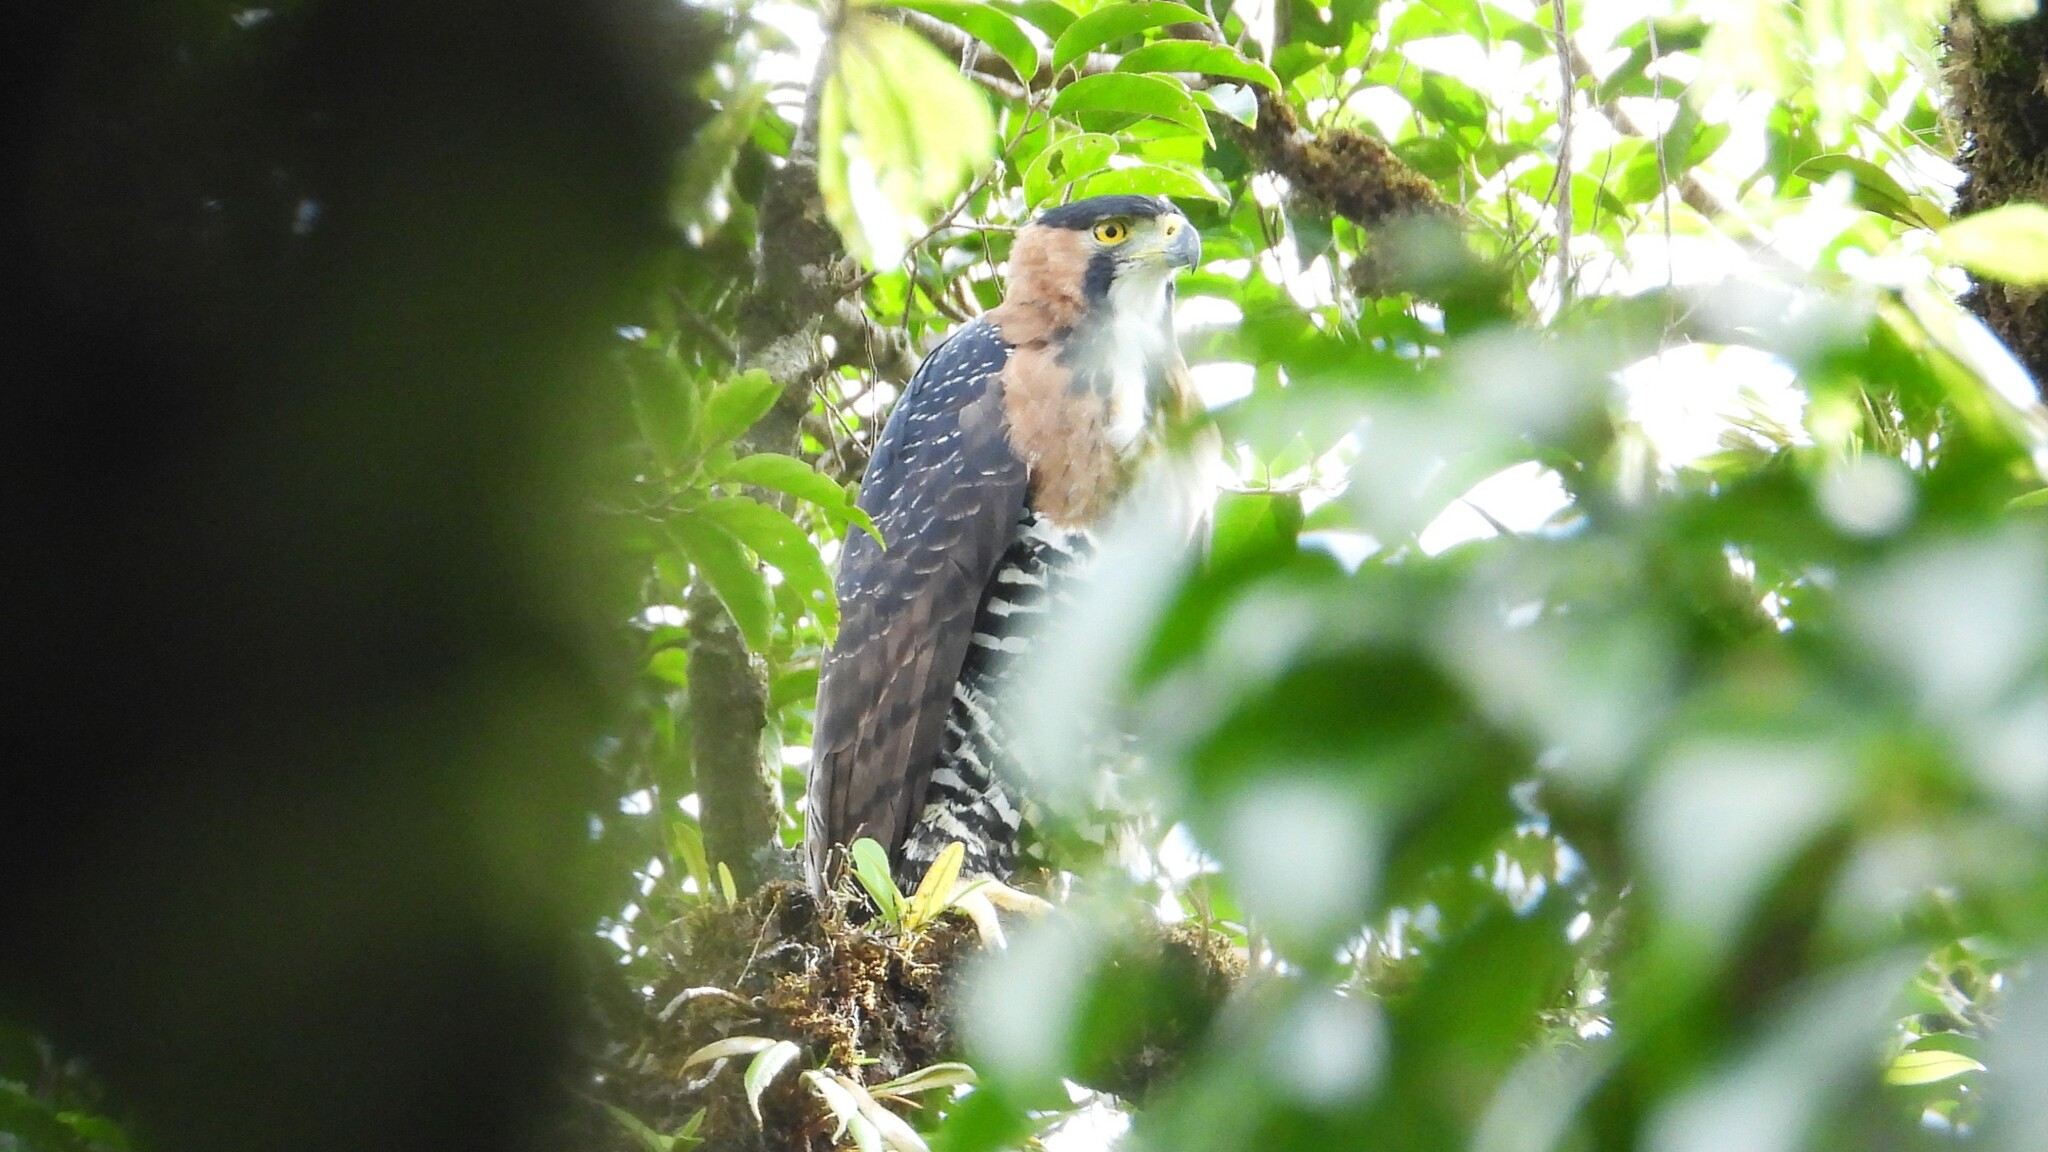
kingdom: Animalia
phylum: Chordata
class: Aves
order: Accipitriformes
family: Accipitridae
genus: Spizaetus
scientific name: Spizaetus ornatus
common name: Ornate hawk-eagle
